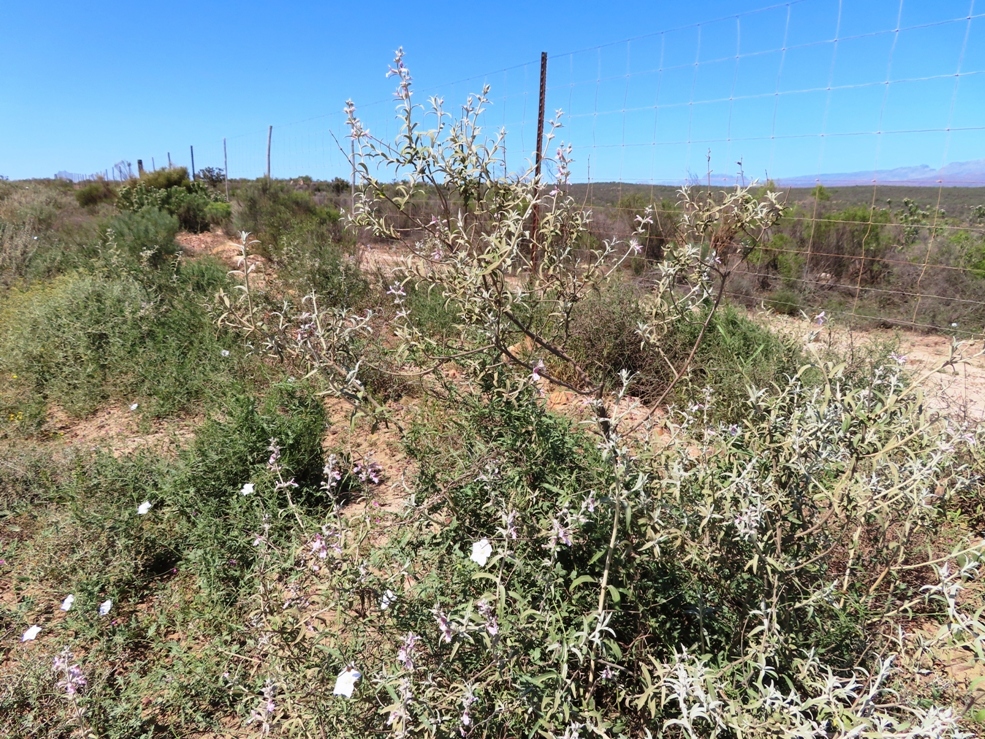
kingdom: Plantae
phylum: Tracheophyta
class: Magnoliopsida
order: Lamiales
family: Lamiaceae
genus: Stachys
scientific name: Stachys rugosa
